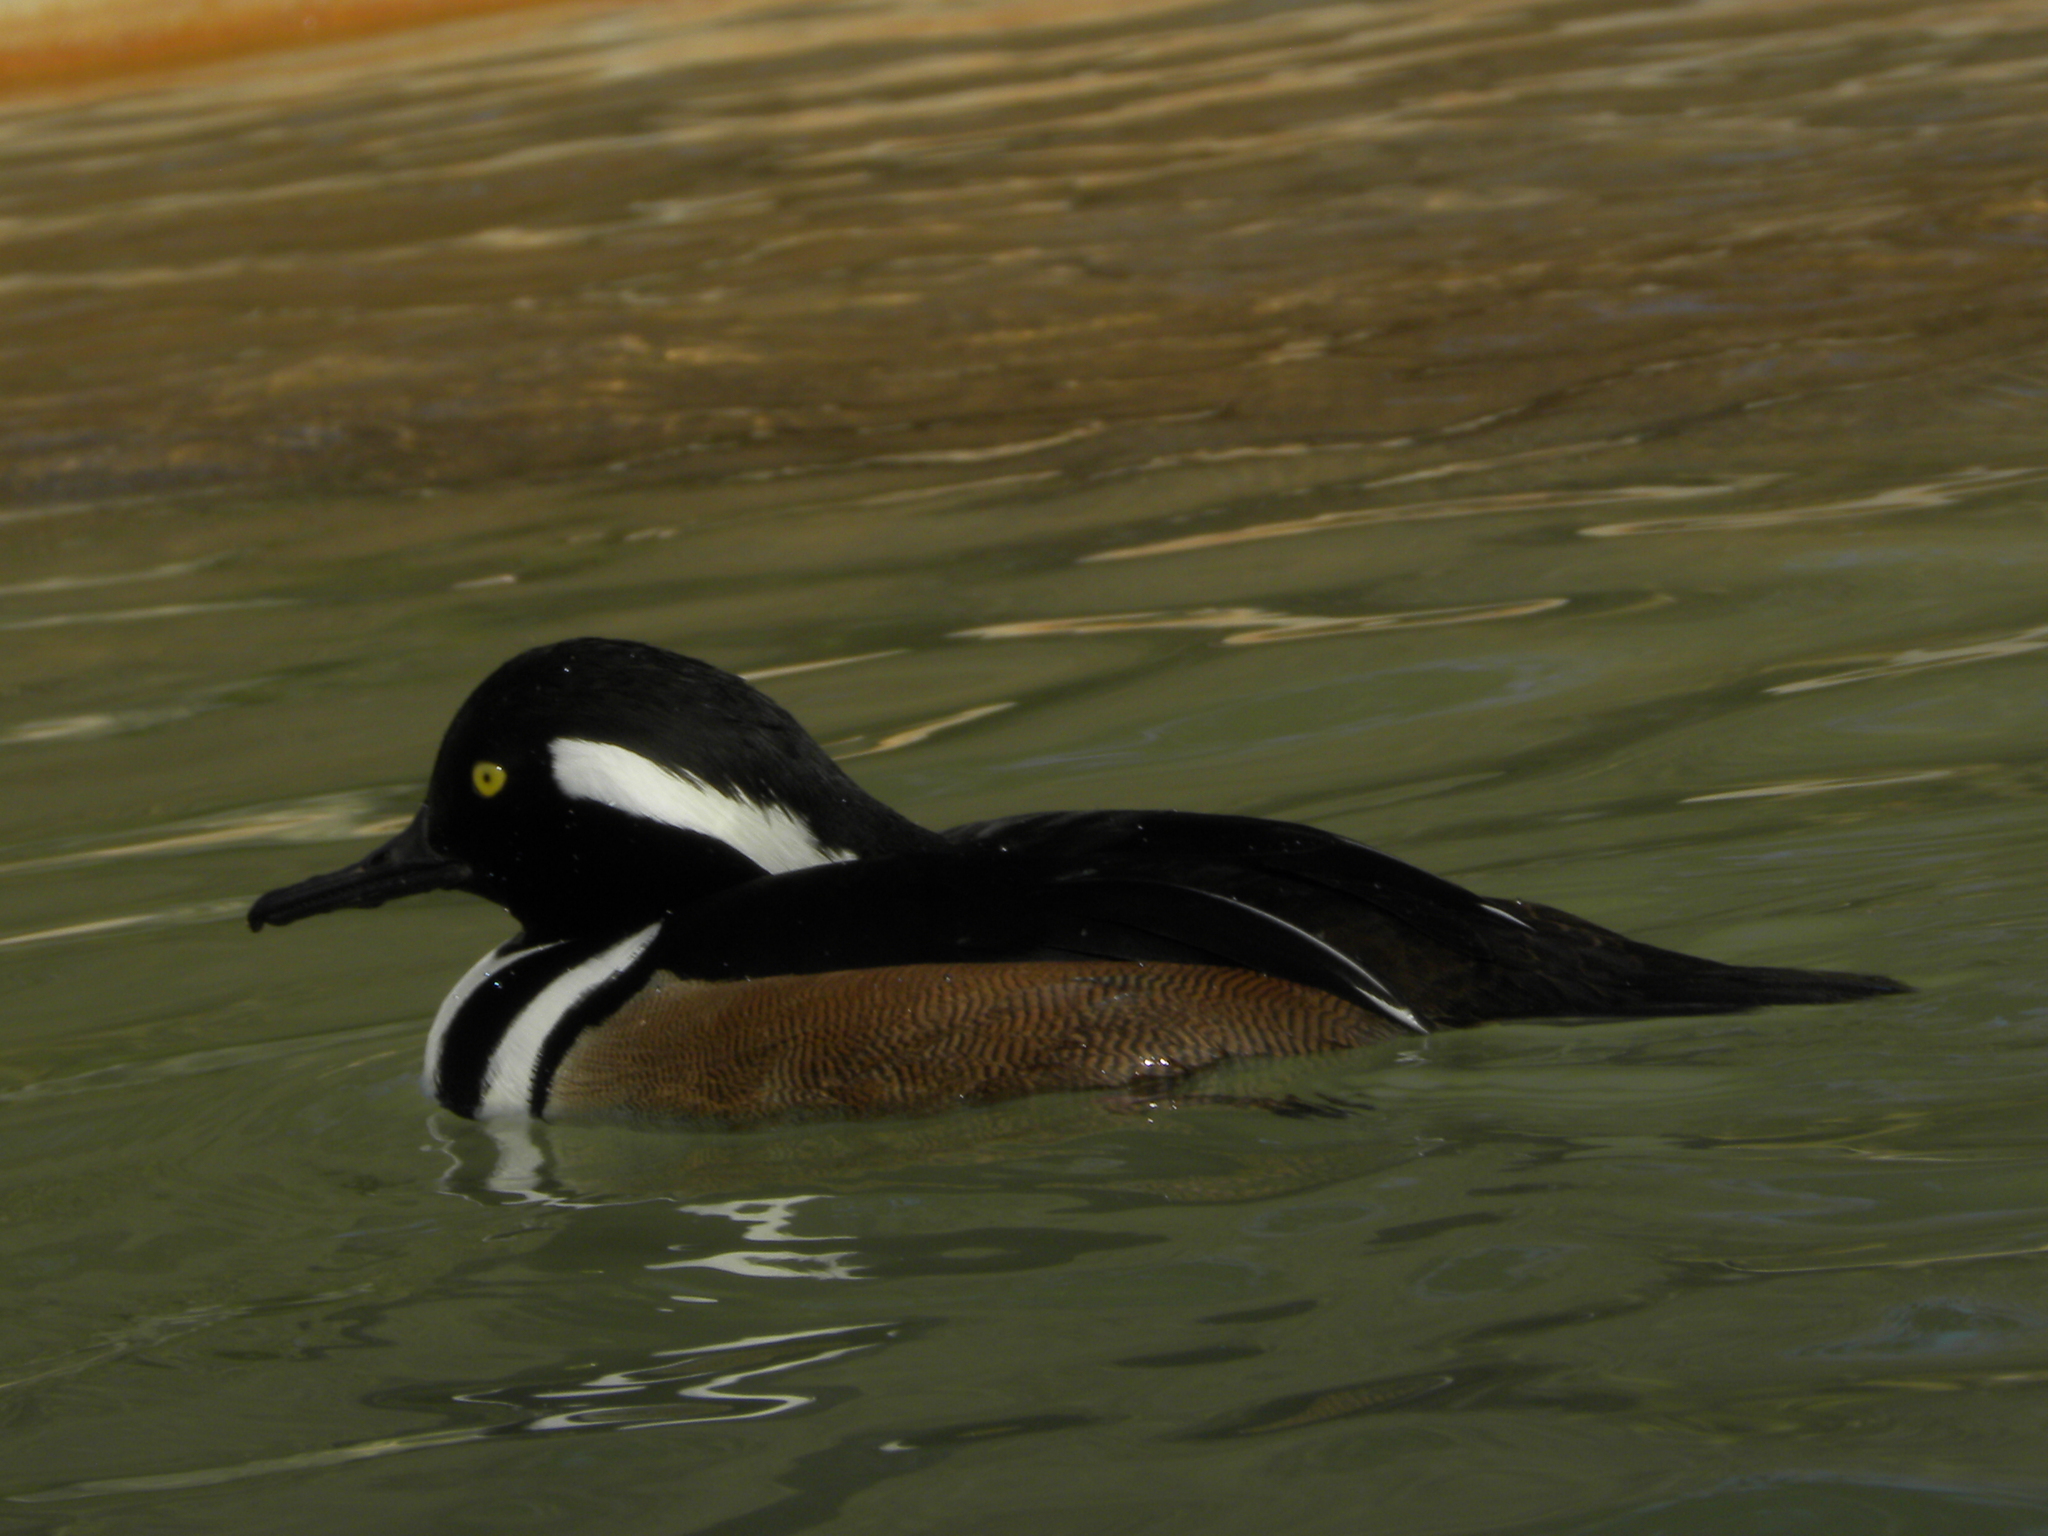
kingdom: Animalia
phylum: Chordata
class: Aves
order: Anseriformes
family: Anatidae
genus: Lophodytes
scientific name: Lophodytes cucullatus
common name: Hooded merganser
